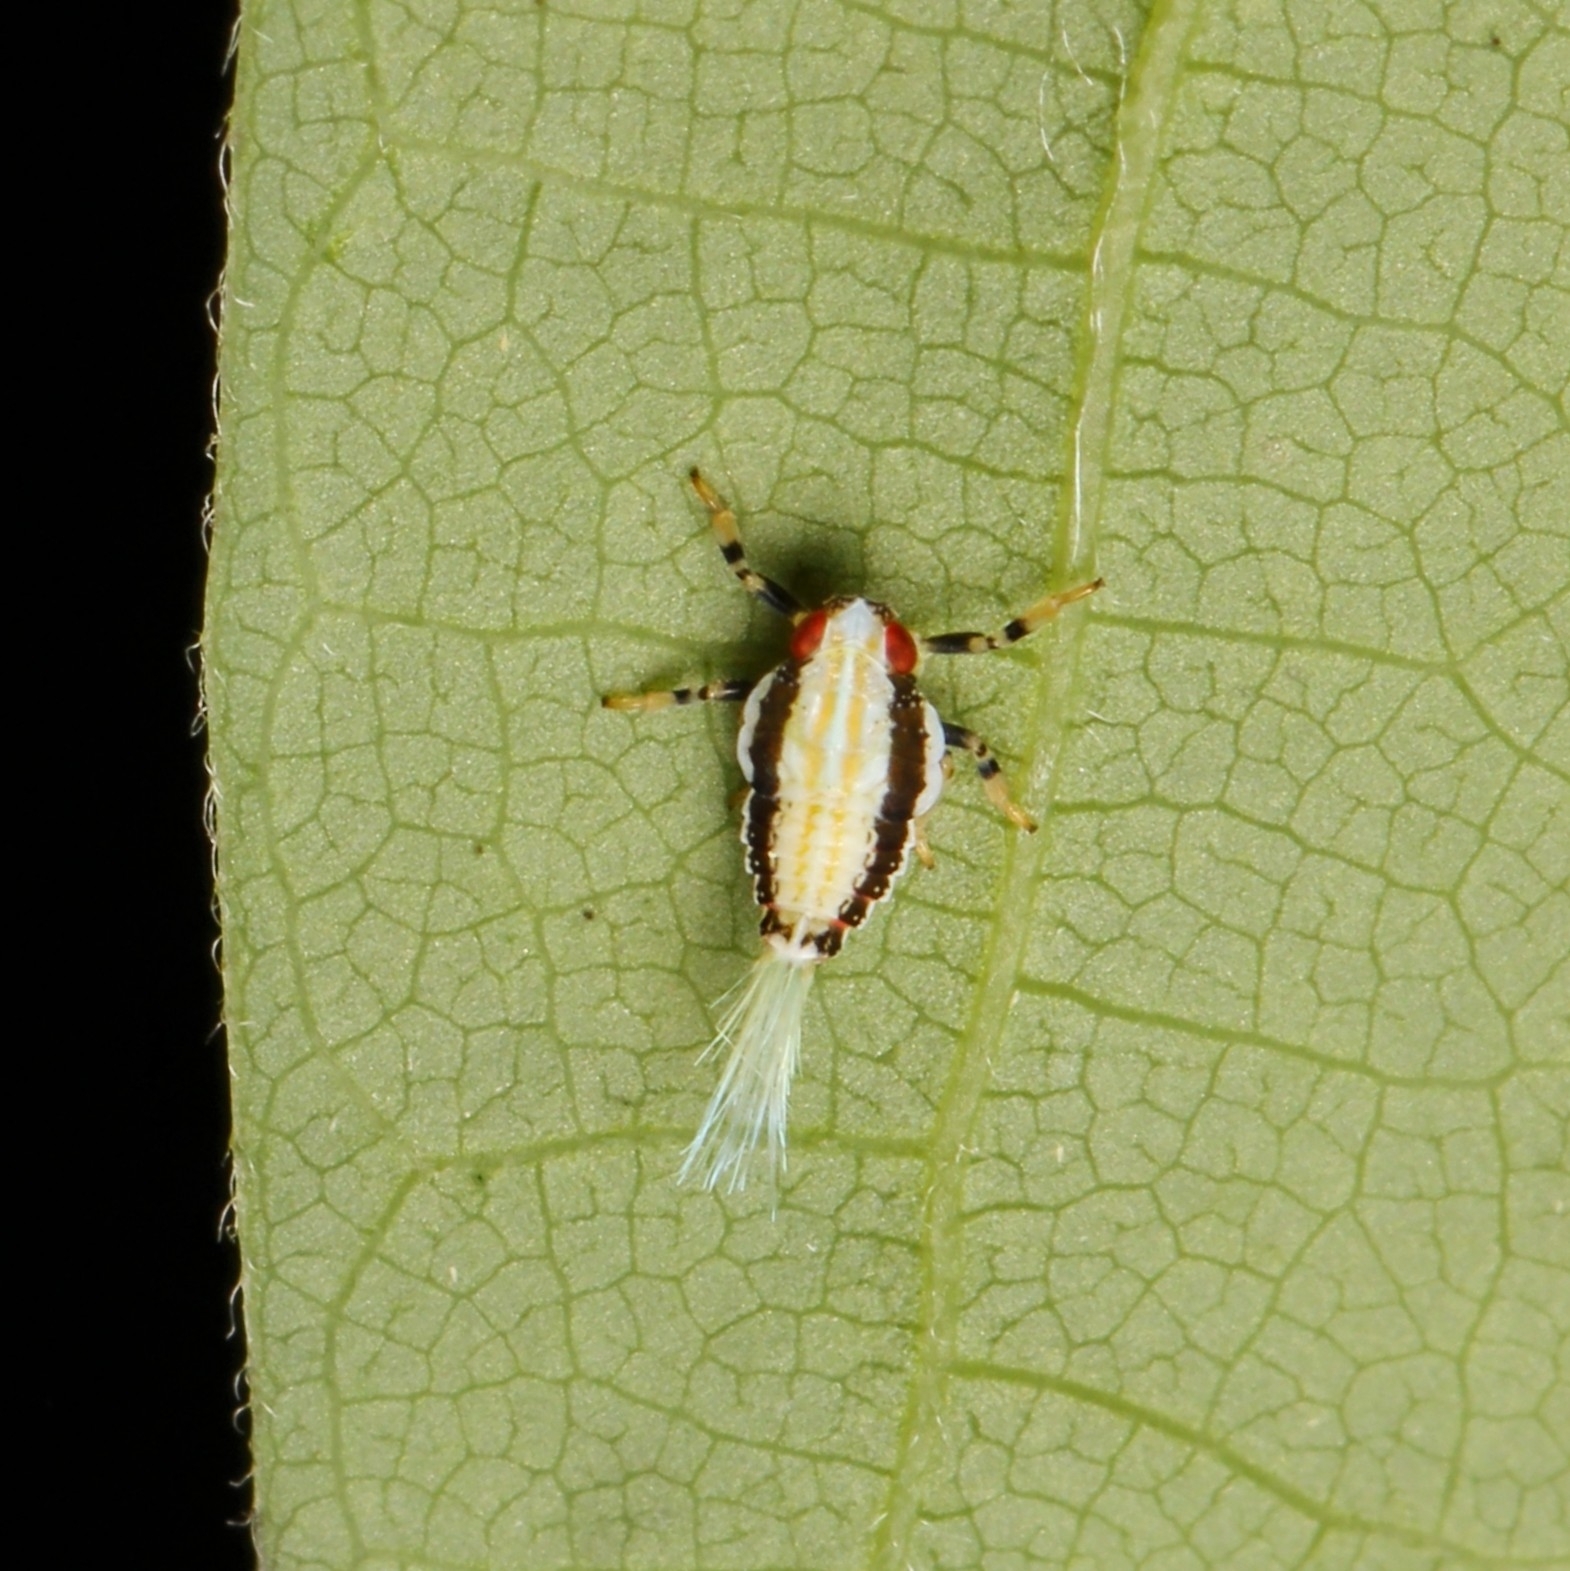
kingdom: Animalia
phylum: Arthropoda
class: Insecta
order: Hemiptera
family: Issidae
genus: Thionia
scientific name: Thionia bullata
